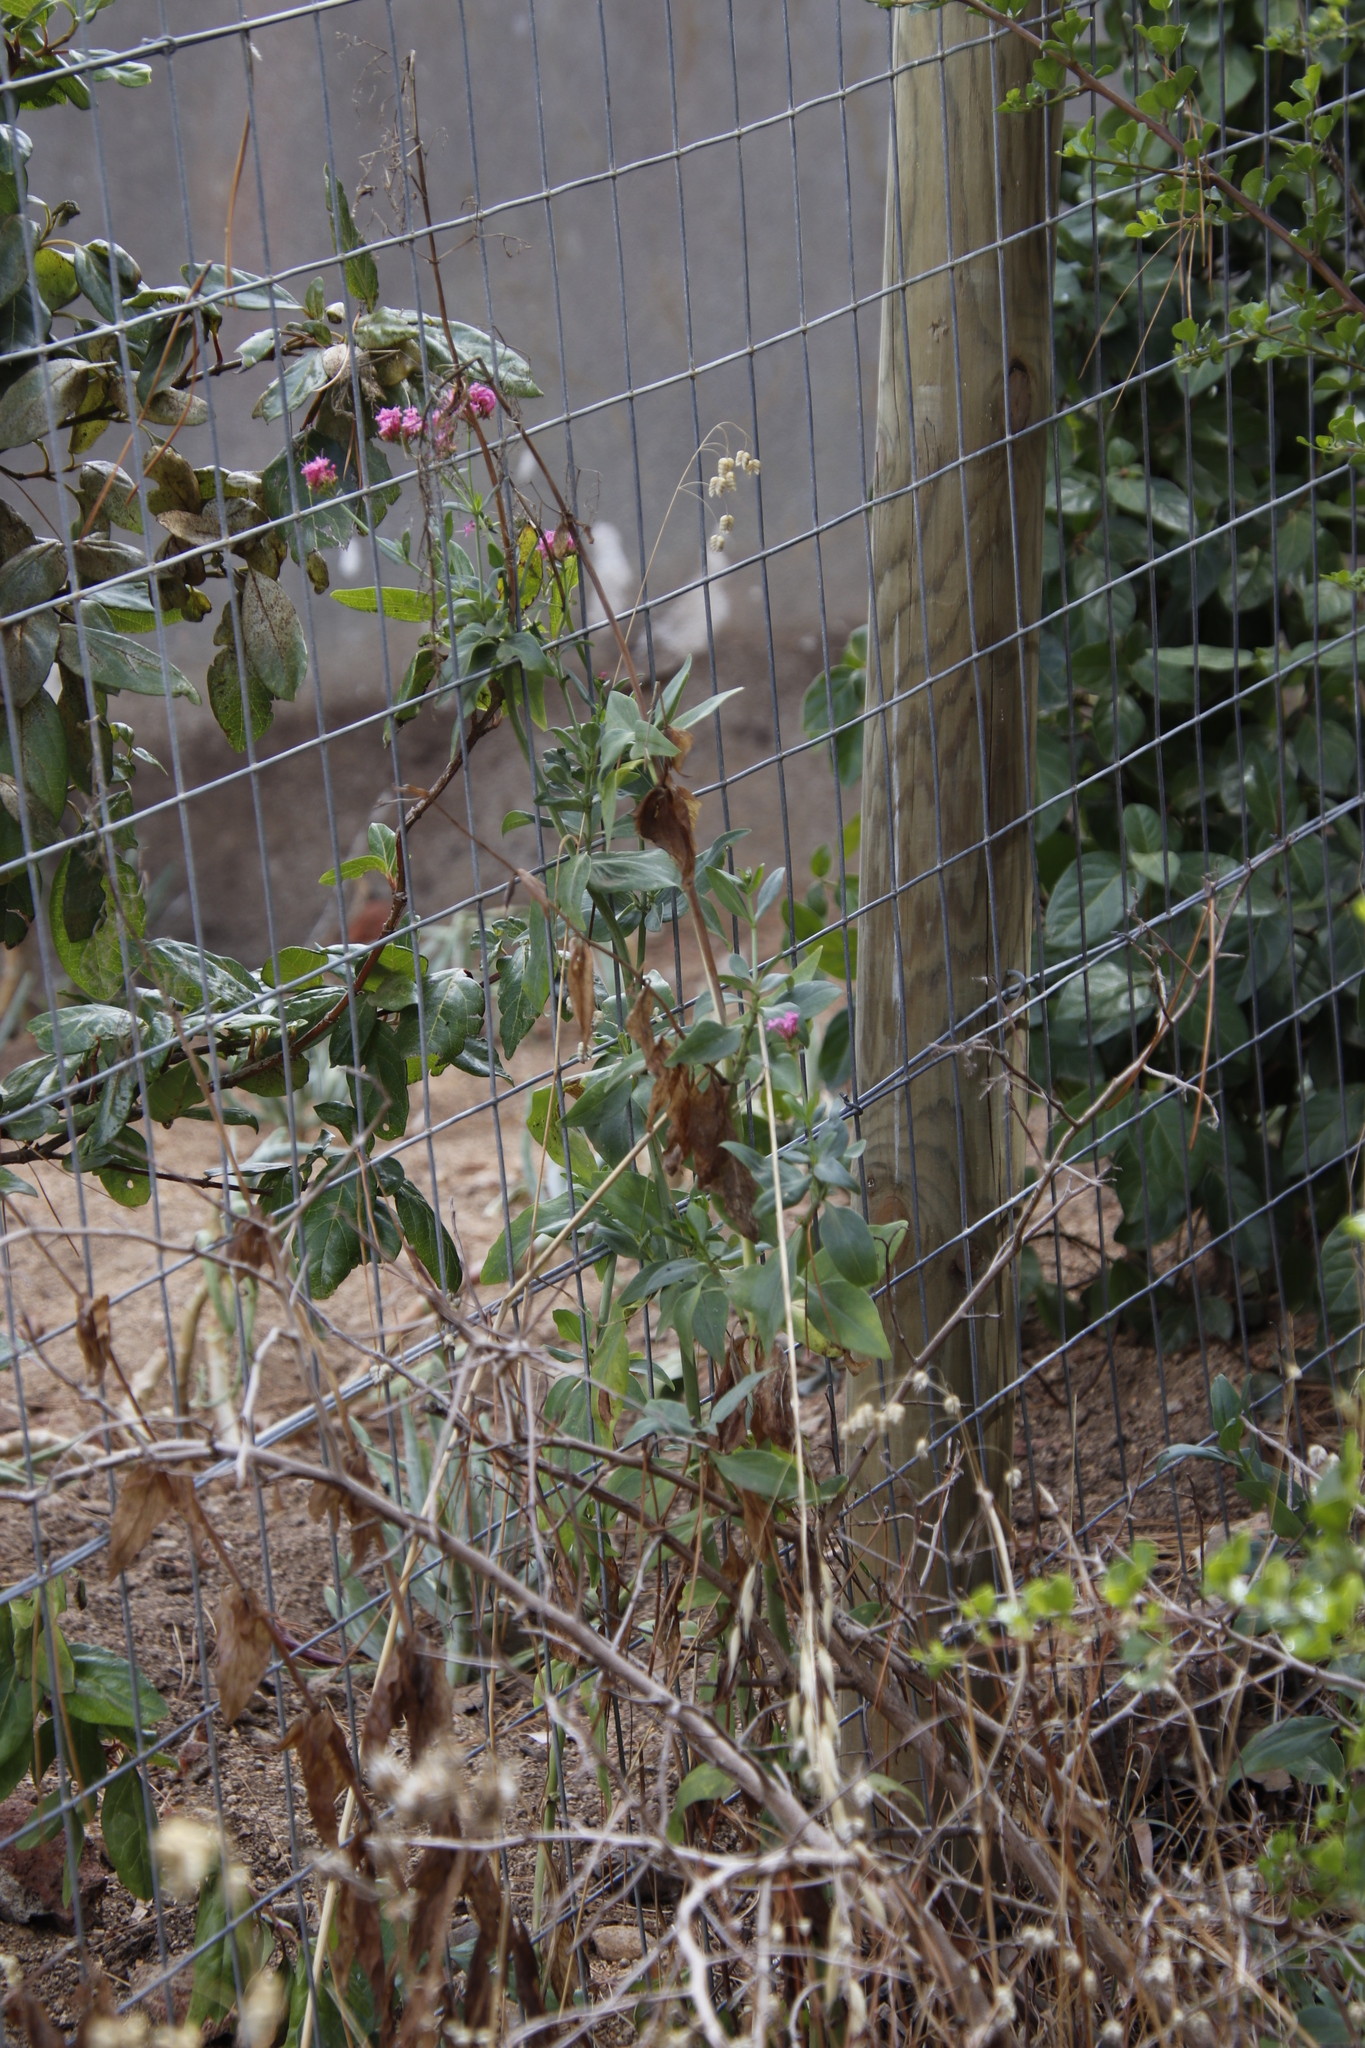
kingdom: Plantae
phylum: Tracheophyta
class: Magnoliopsida
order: Dipsacales
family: Caprifoliaceae
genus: Centranthus
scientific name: Centranthus ruber
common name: Red valerian
